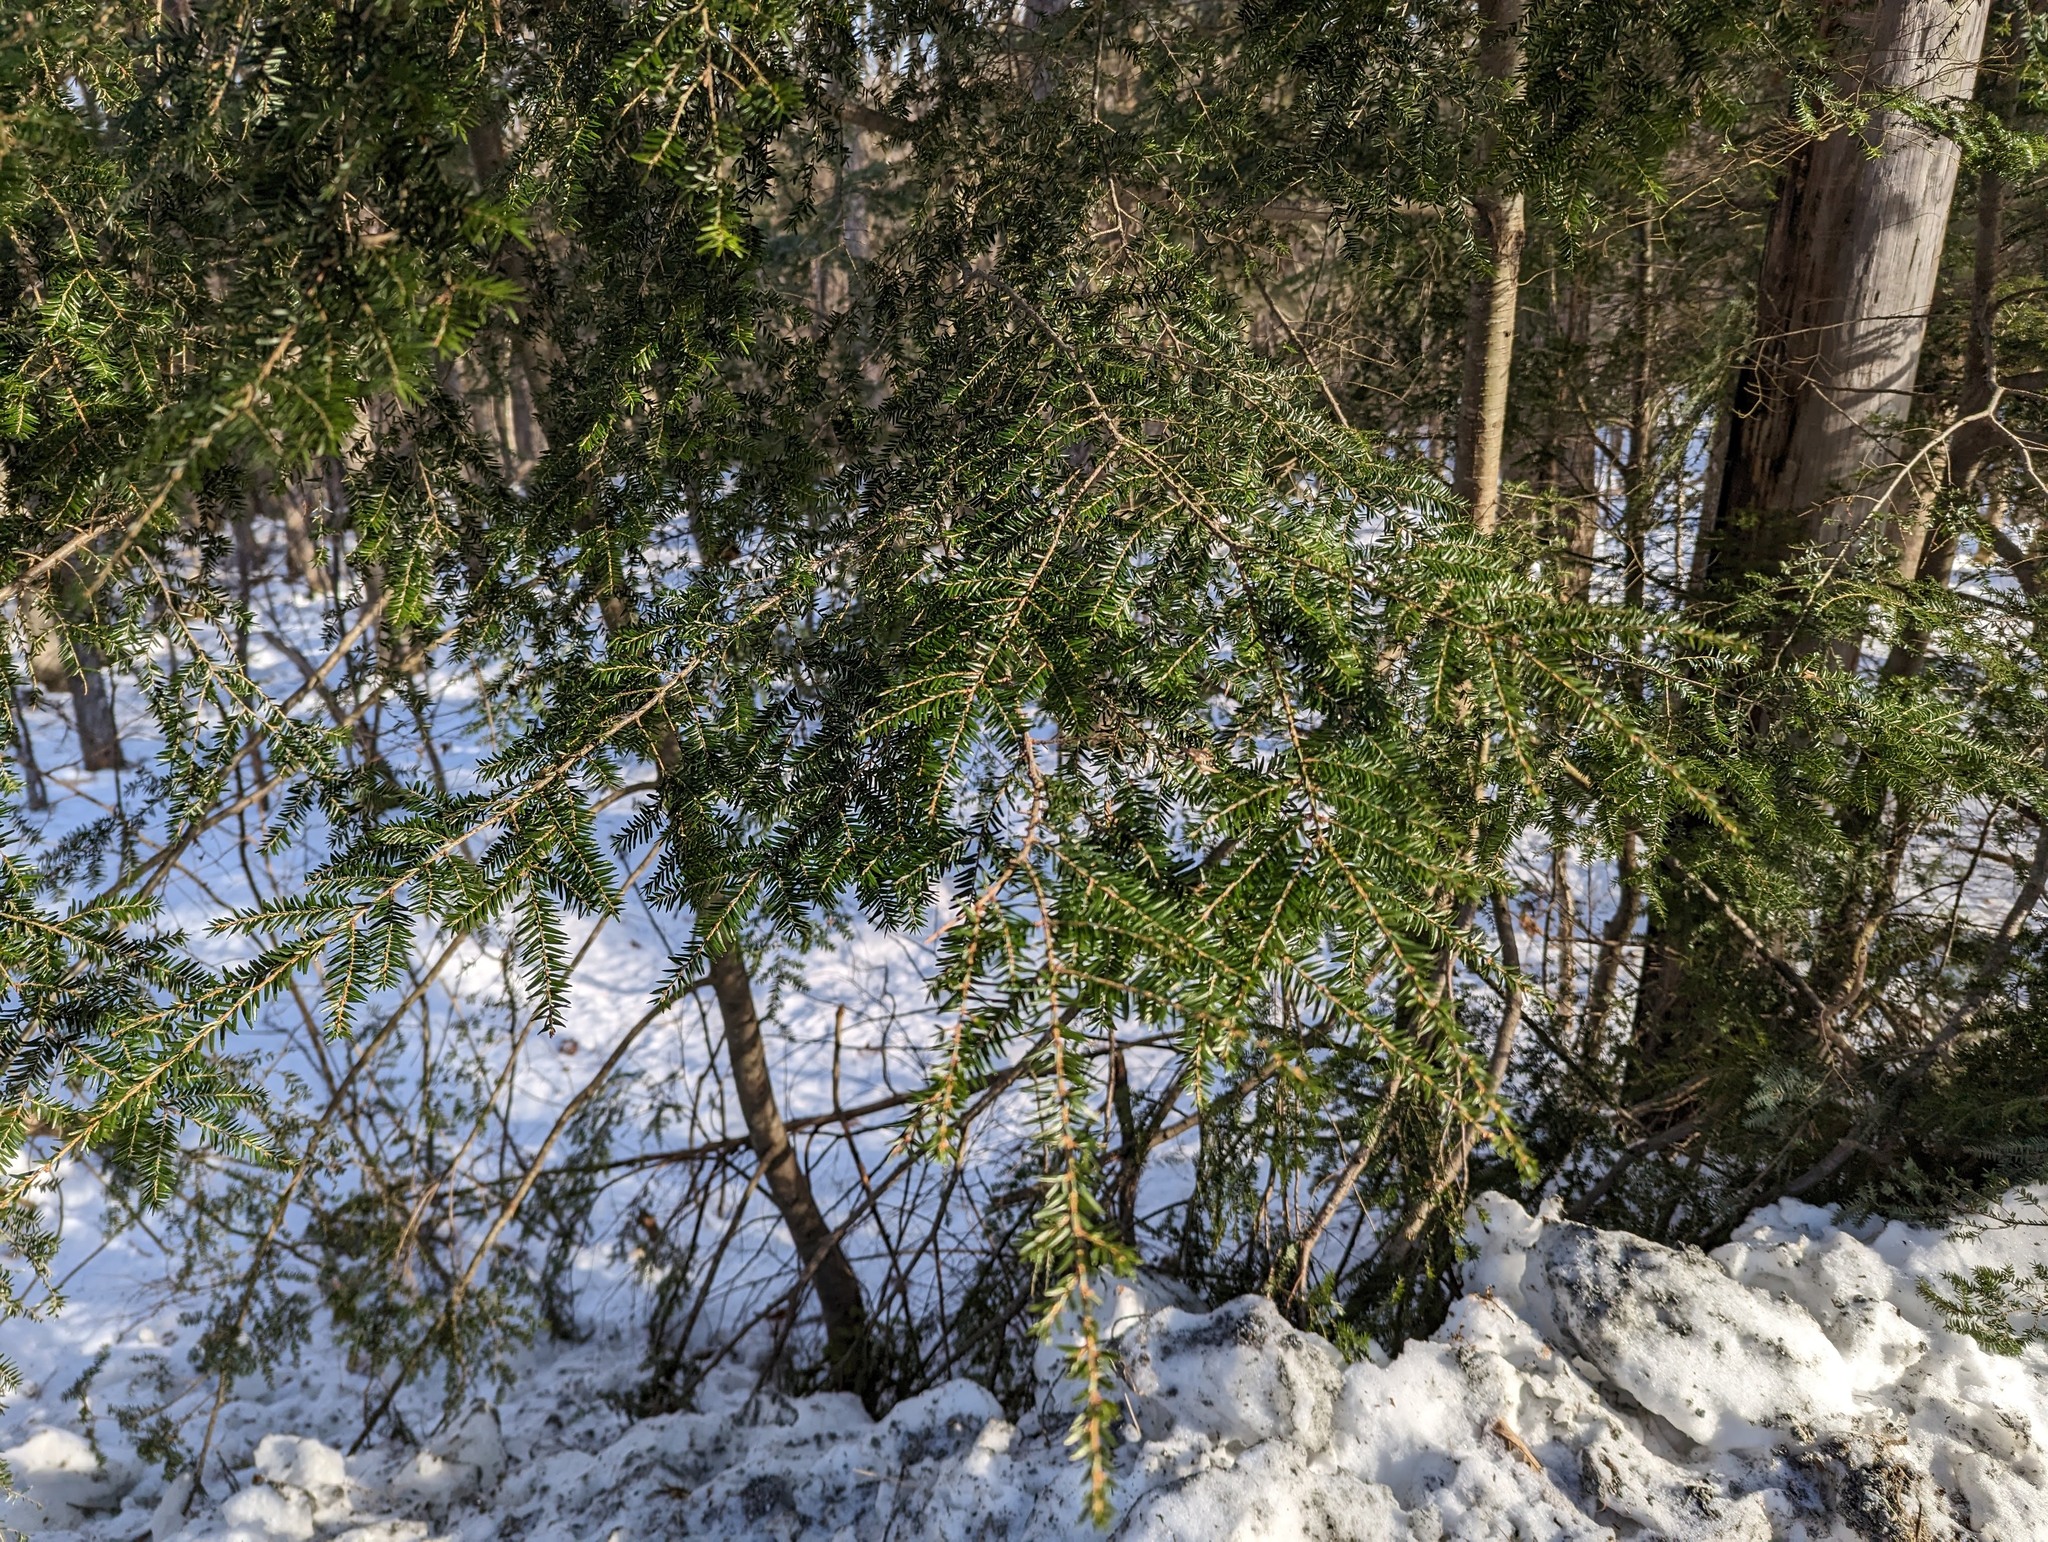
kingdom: Plantae
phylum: Tracheophyta
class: Pinopsida
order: Pinales
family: Pinaceae
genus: Tsuga
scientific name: Tsuga canadensis
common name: Eastern hemlock
